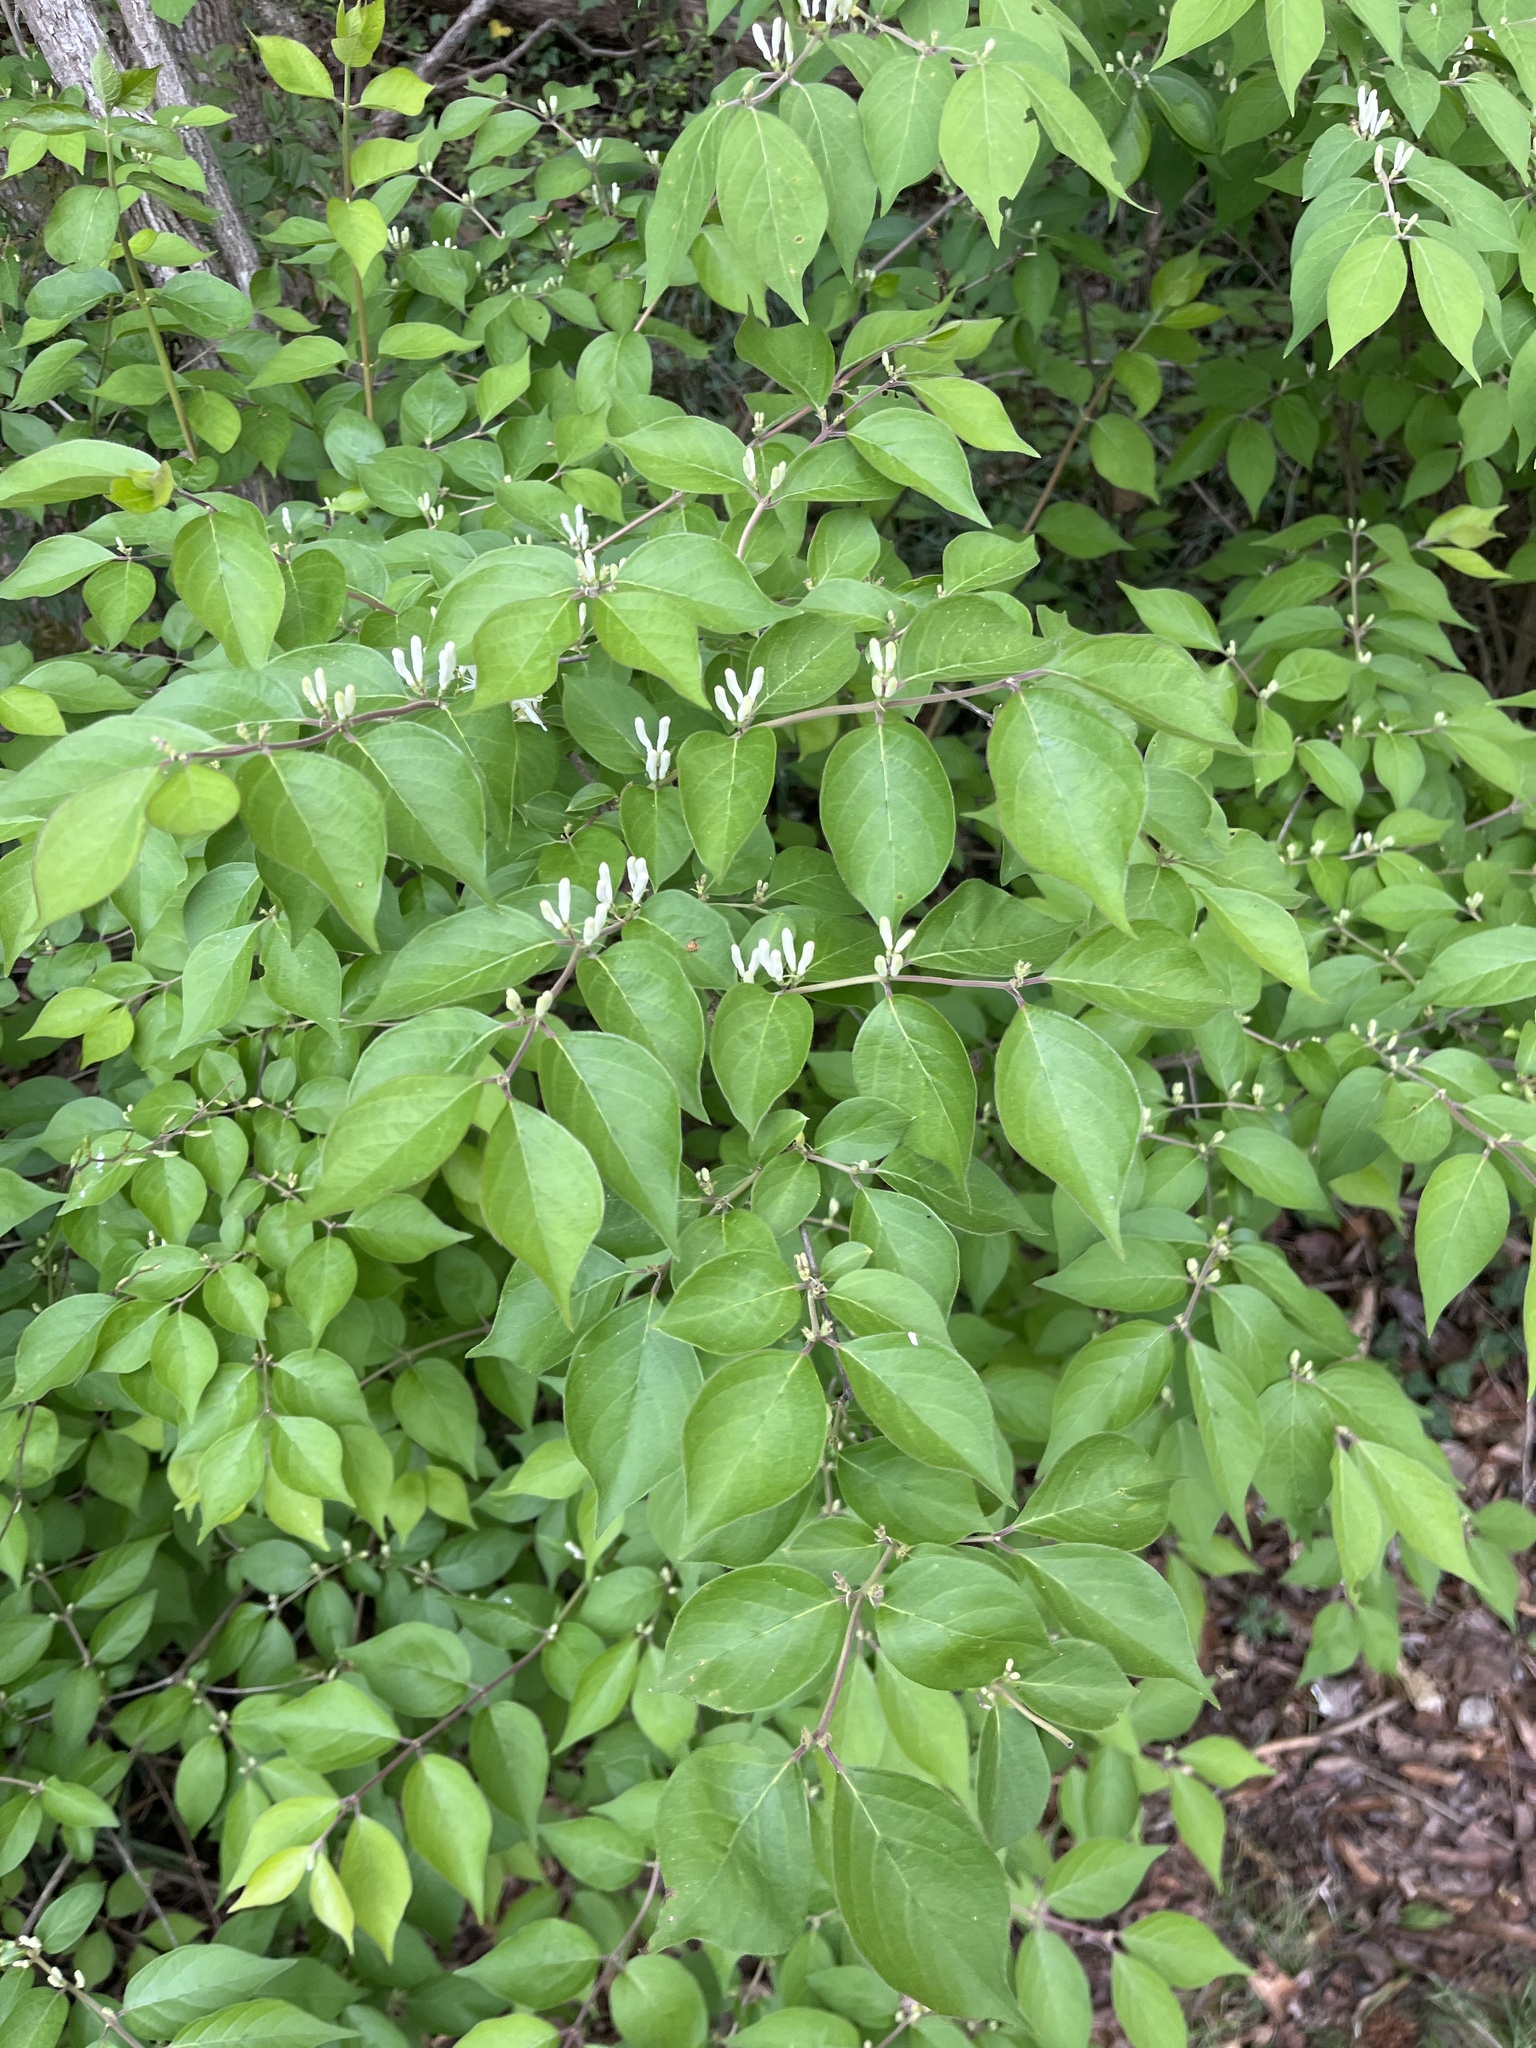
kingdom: Plantae
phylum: Tracheophyta
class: Magnoliopsida
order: Dipsacales
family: Caprifoliaceae
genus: Lonicera
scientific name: Lonicera maackii
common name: Amur honeysuckle
